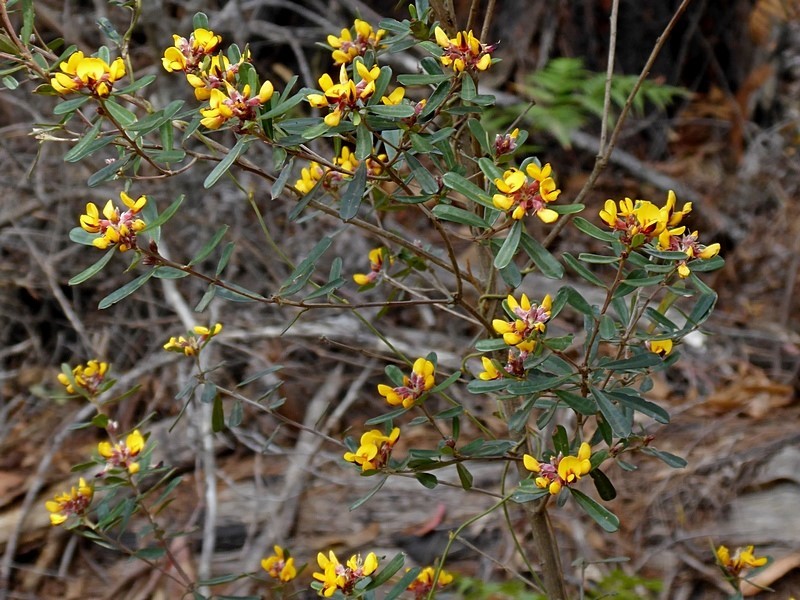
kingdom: Plantae
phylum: Tracheophyta
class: Magnoliopsida
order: Fabales
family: Fabaceae
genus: Pultenaea
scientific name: Pultenaea daphnoides
